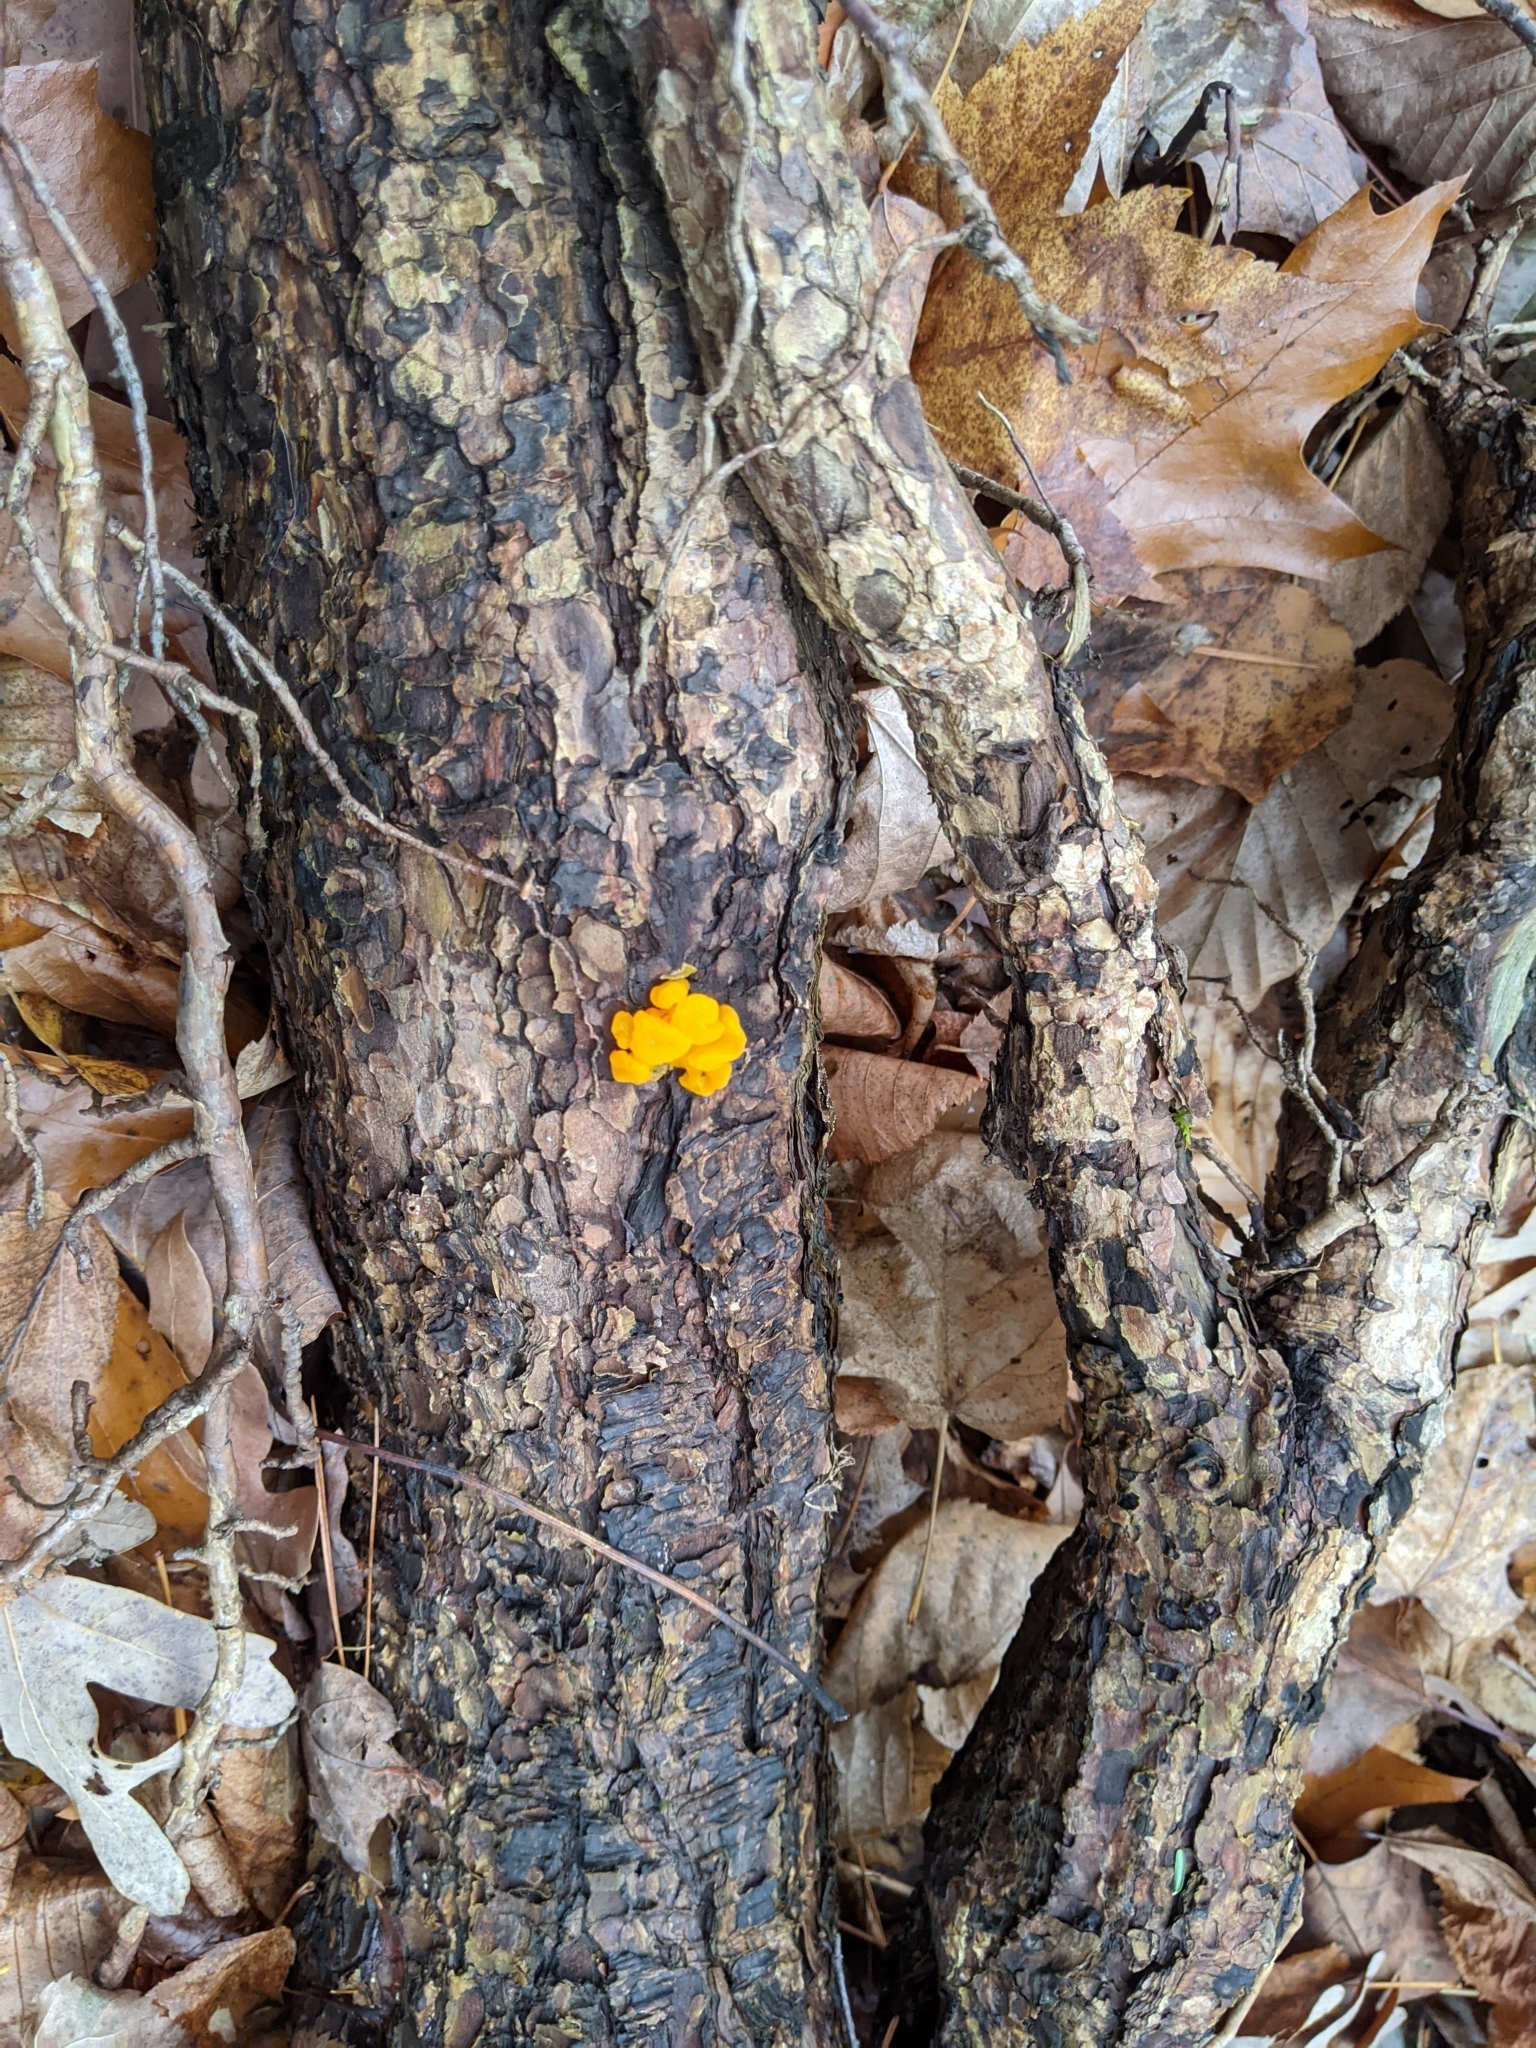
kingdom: Fungi
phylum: Basidiomycota
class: Dacrymycetes
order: Dacrymycetales
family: Dacrymycetaceae
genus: Dacrymyces
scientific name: Dacrymyces chrysospermus
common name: Orange jelly spot
